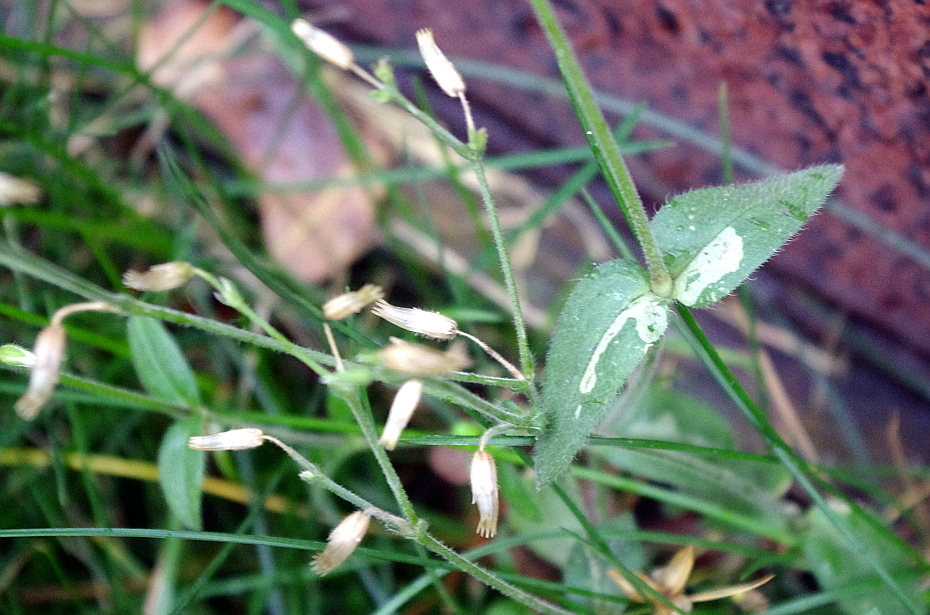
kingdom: Plantae
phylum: Tracheophyta
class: Magnoliopsida
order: Caryophyllales
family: Caryophyllaceae
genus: Cerastium
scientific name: Cerastium holosteoides
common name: Big chickweed
